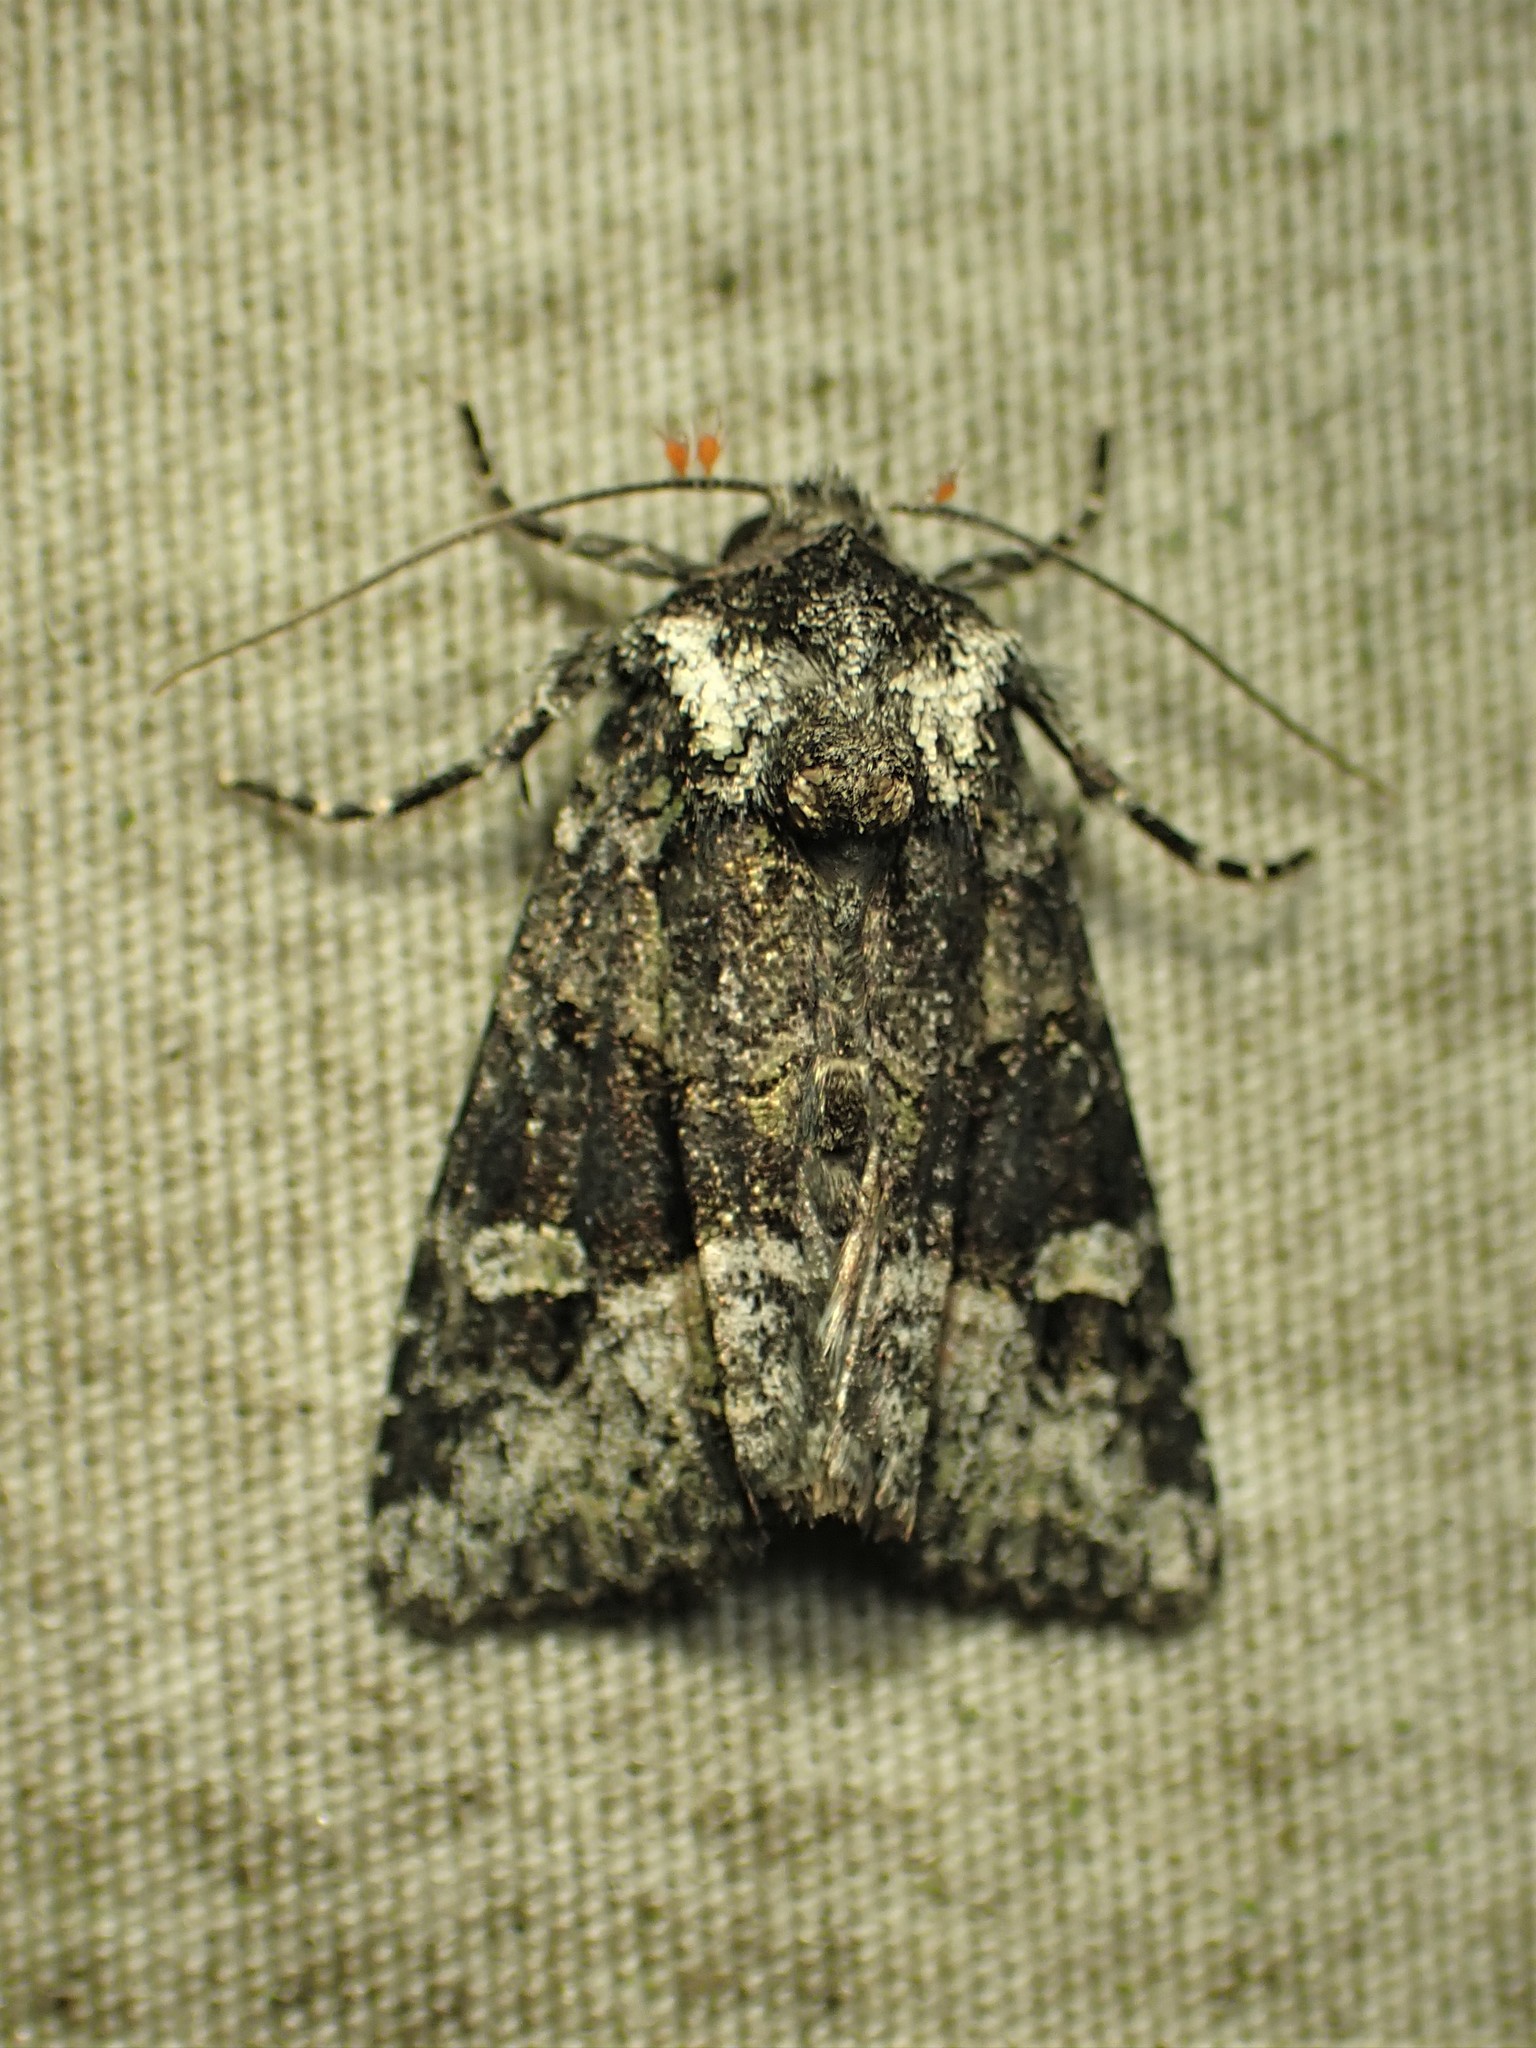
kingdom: Animalia
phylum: Arthropoda
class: Insecta
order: Lepidoptera
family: Noctuidae
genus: Lacinipolia
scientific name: Lacinipolia olivacea
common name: Olive arches moth
